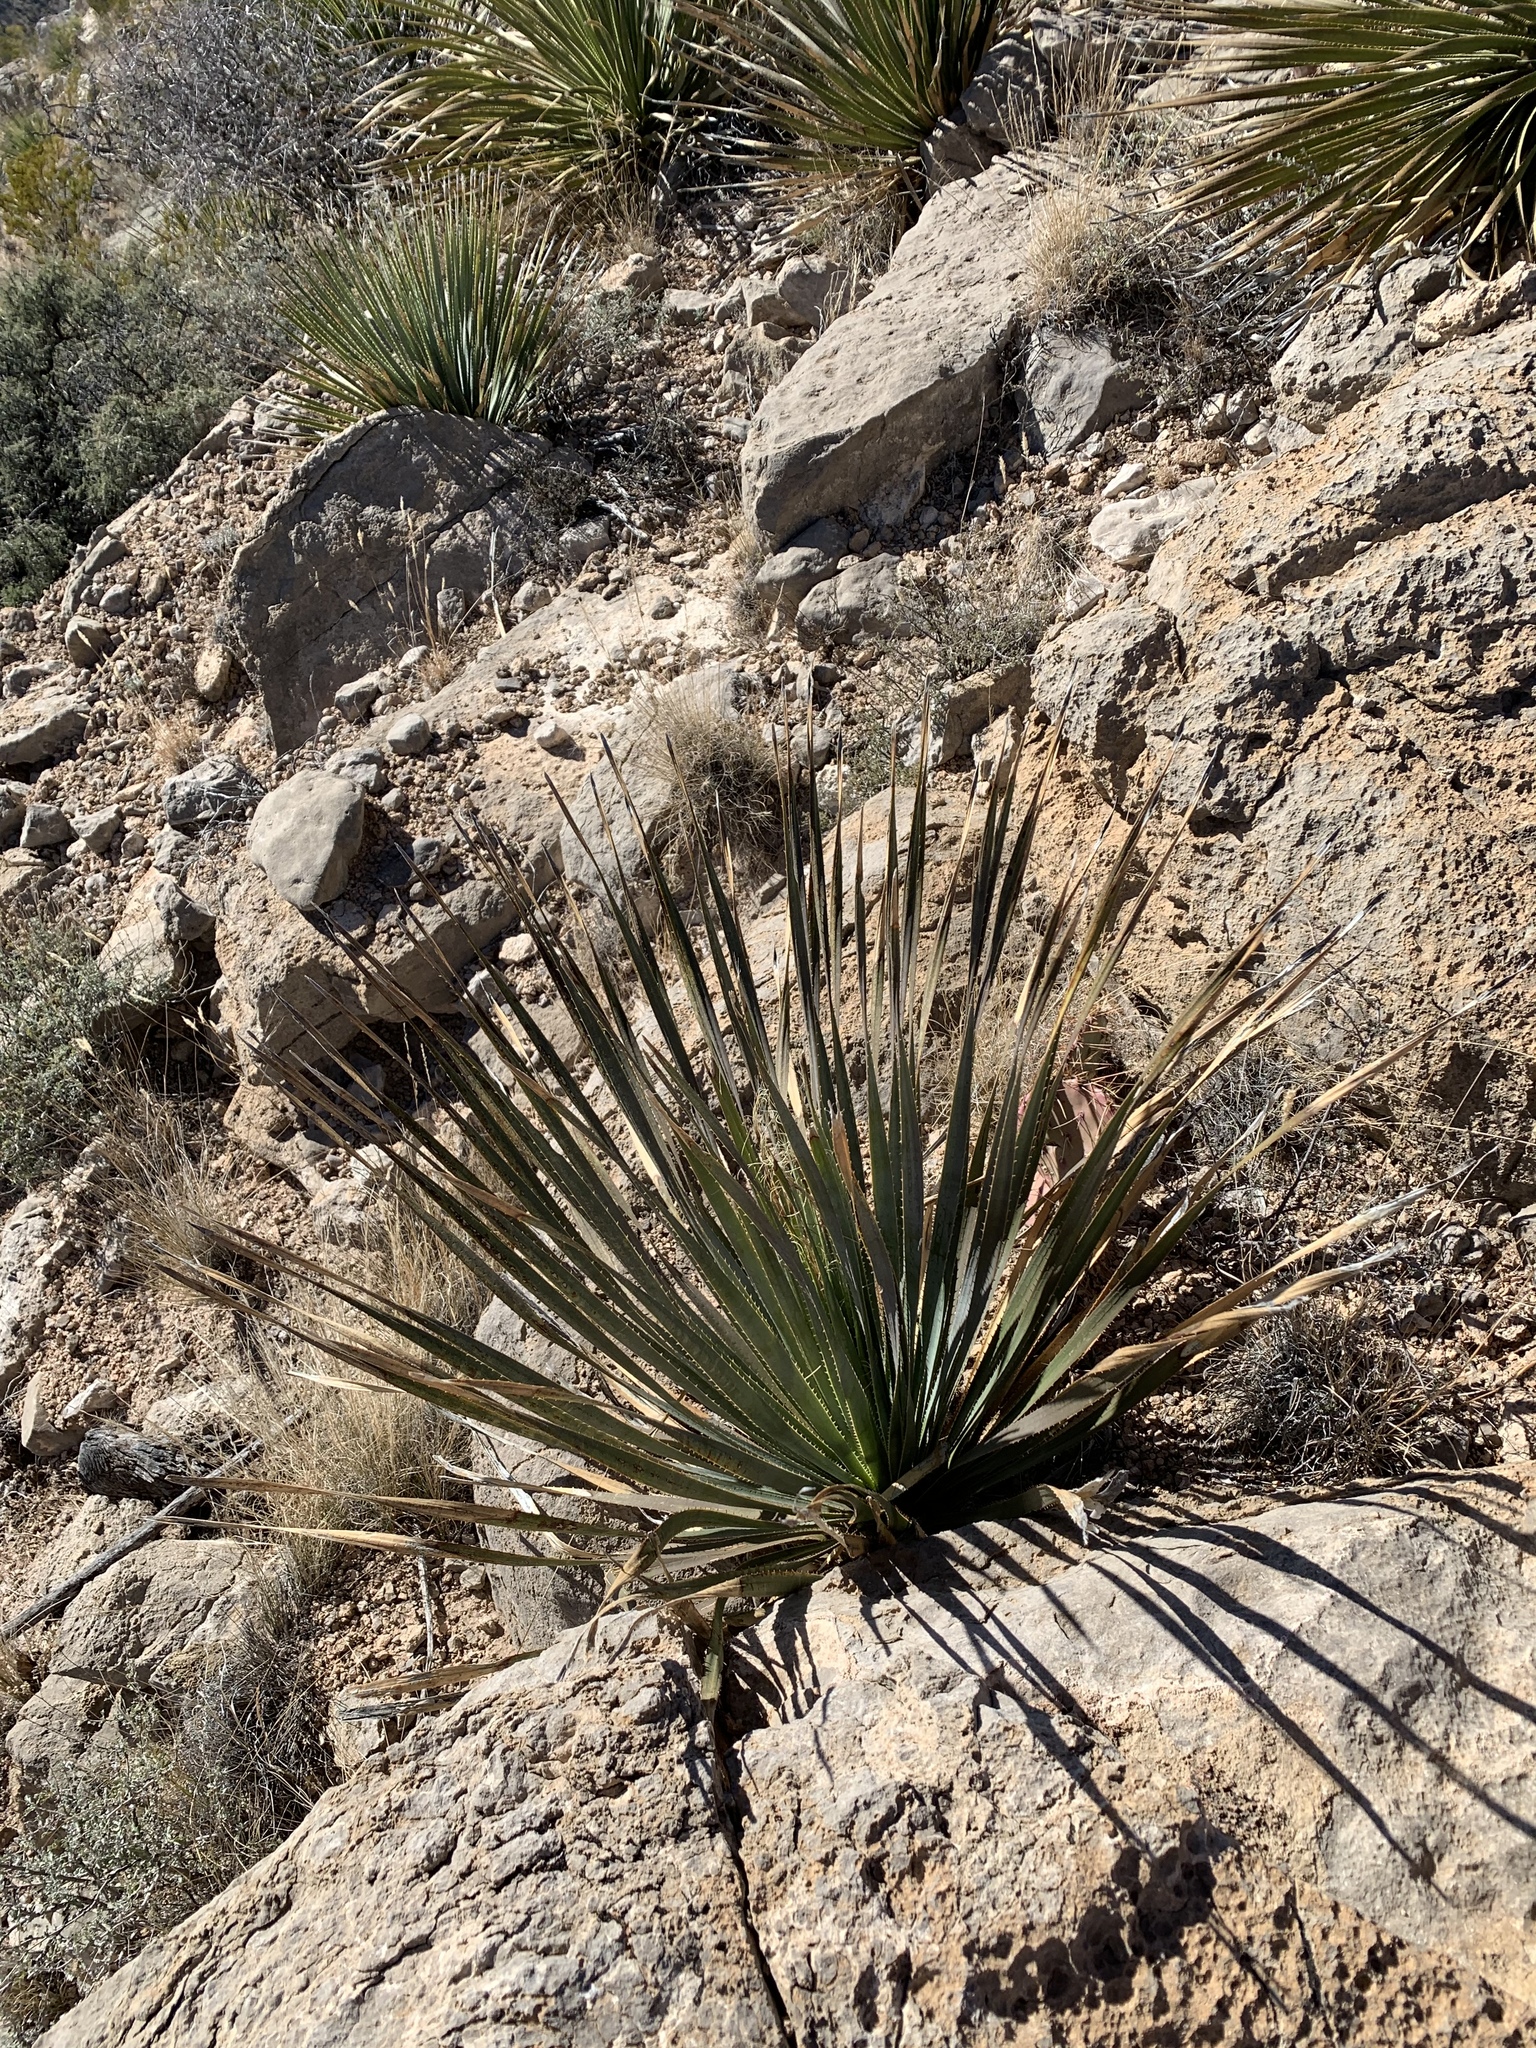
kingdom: Plantae
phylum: Tracheophyta
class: Liliopsida
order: Asparagales
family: Asparagaceae
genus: Dasylirion
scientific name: Dasylirion wheeleri
